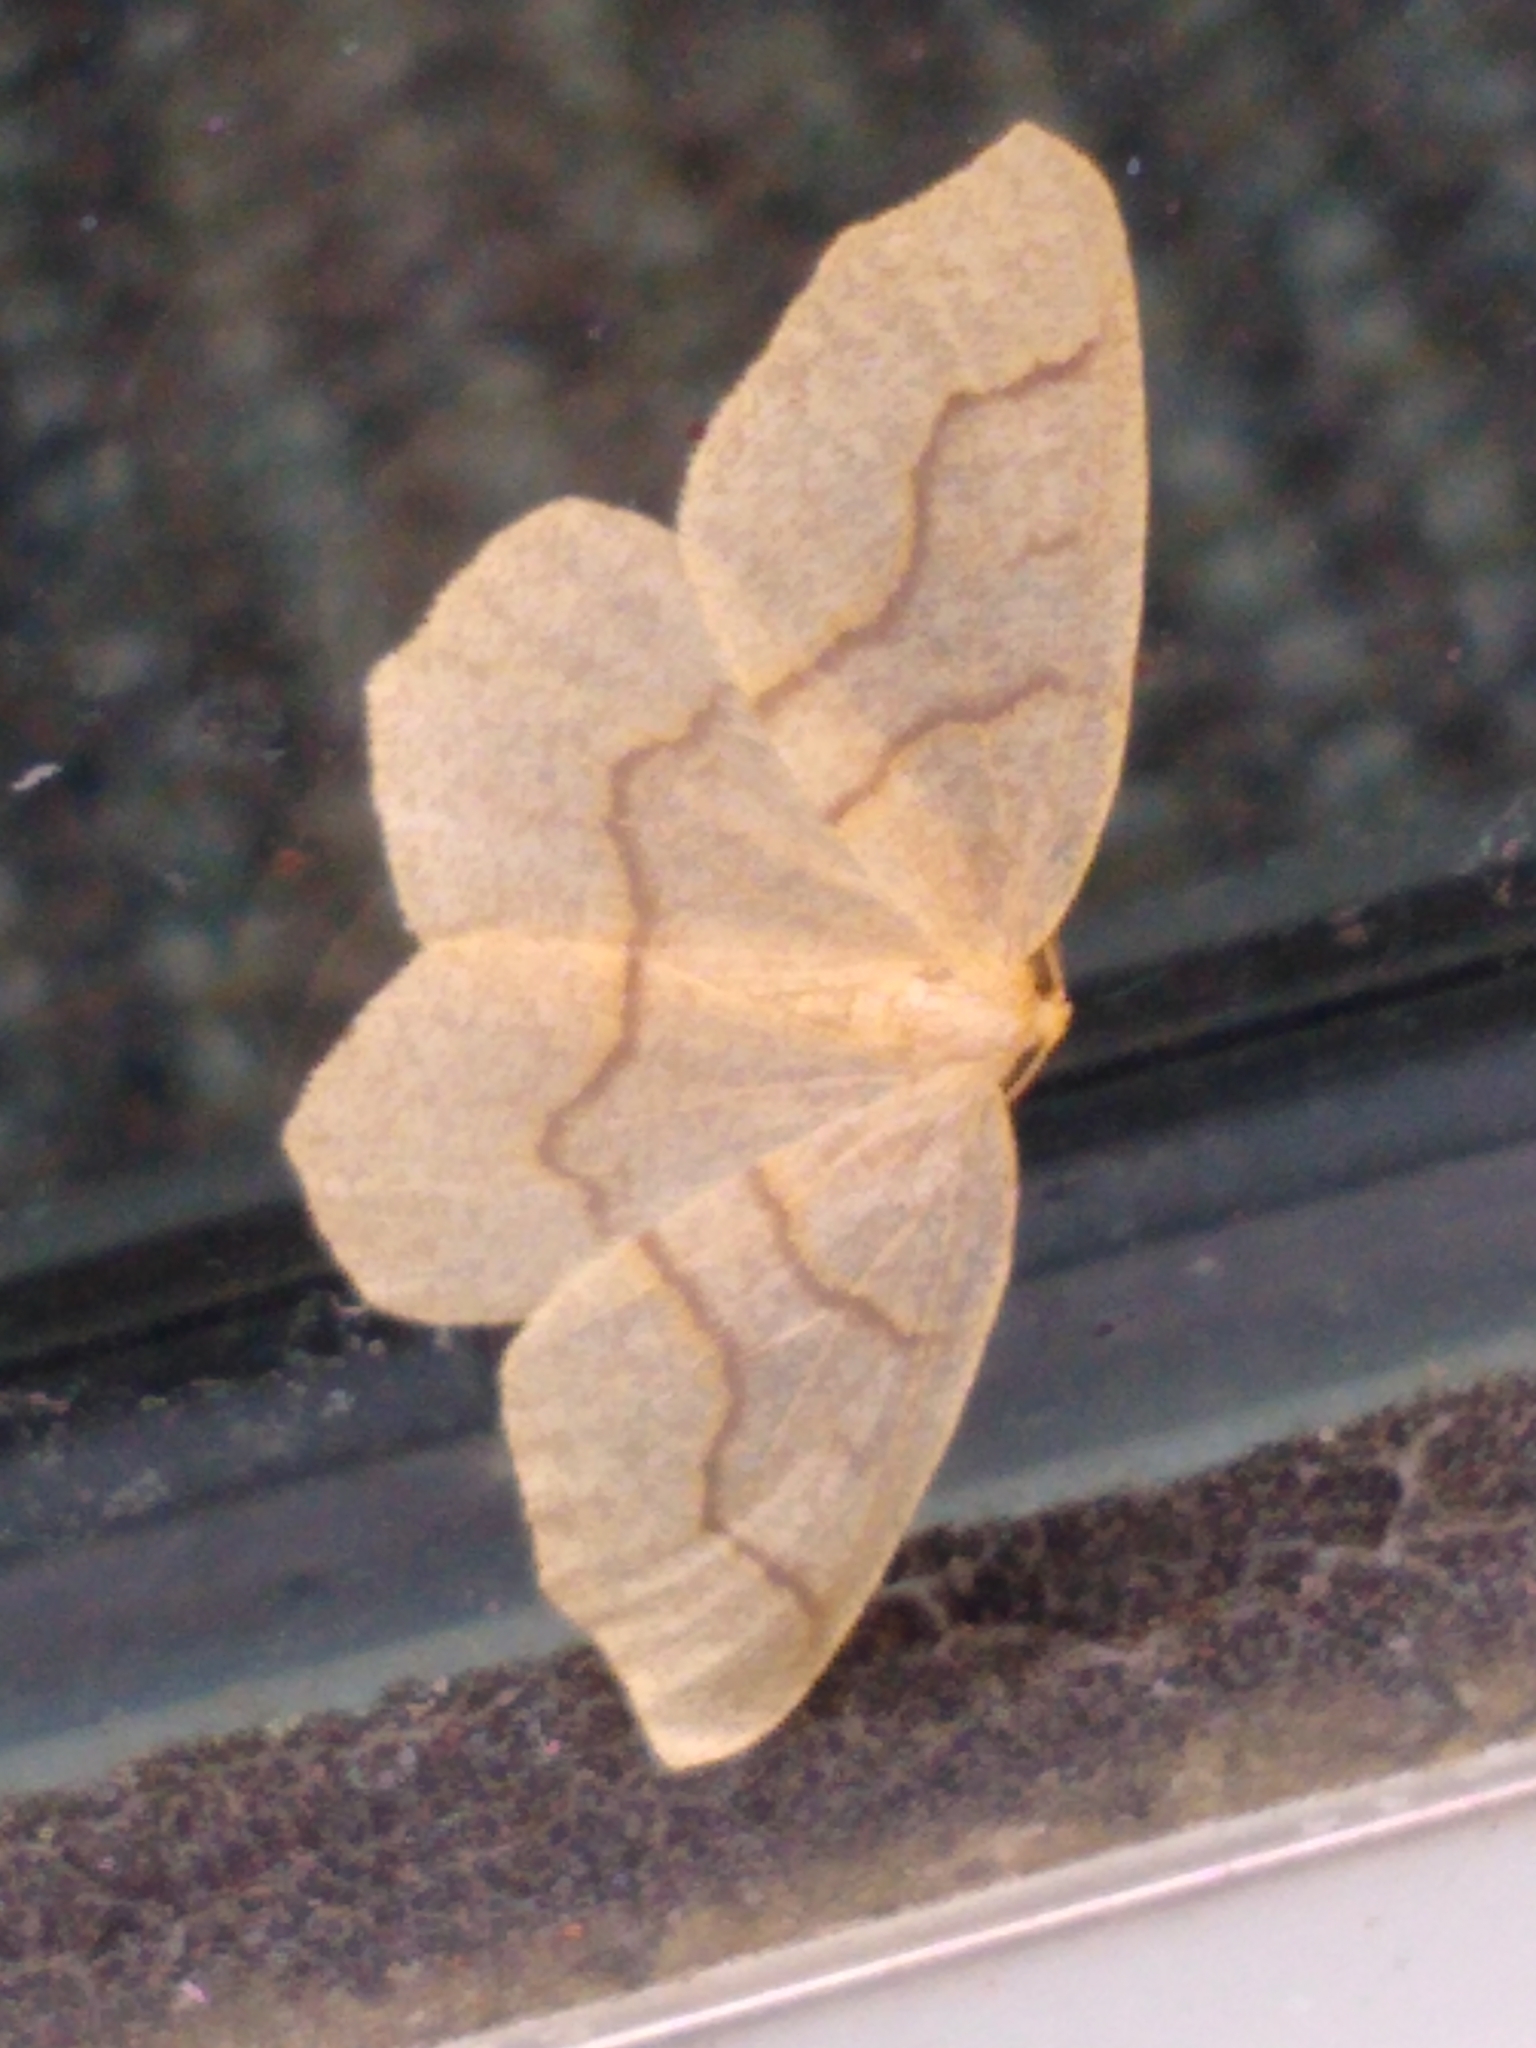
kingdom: Animalia
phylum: Arthropoda
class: Insecta
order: Lepidoptera
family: Geometridae
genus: Lambdina
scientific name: Lambdina fiscellaria
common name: Hemlock looper
